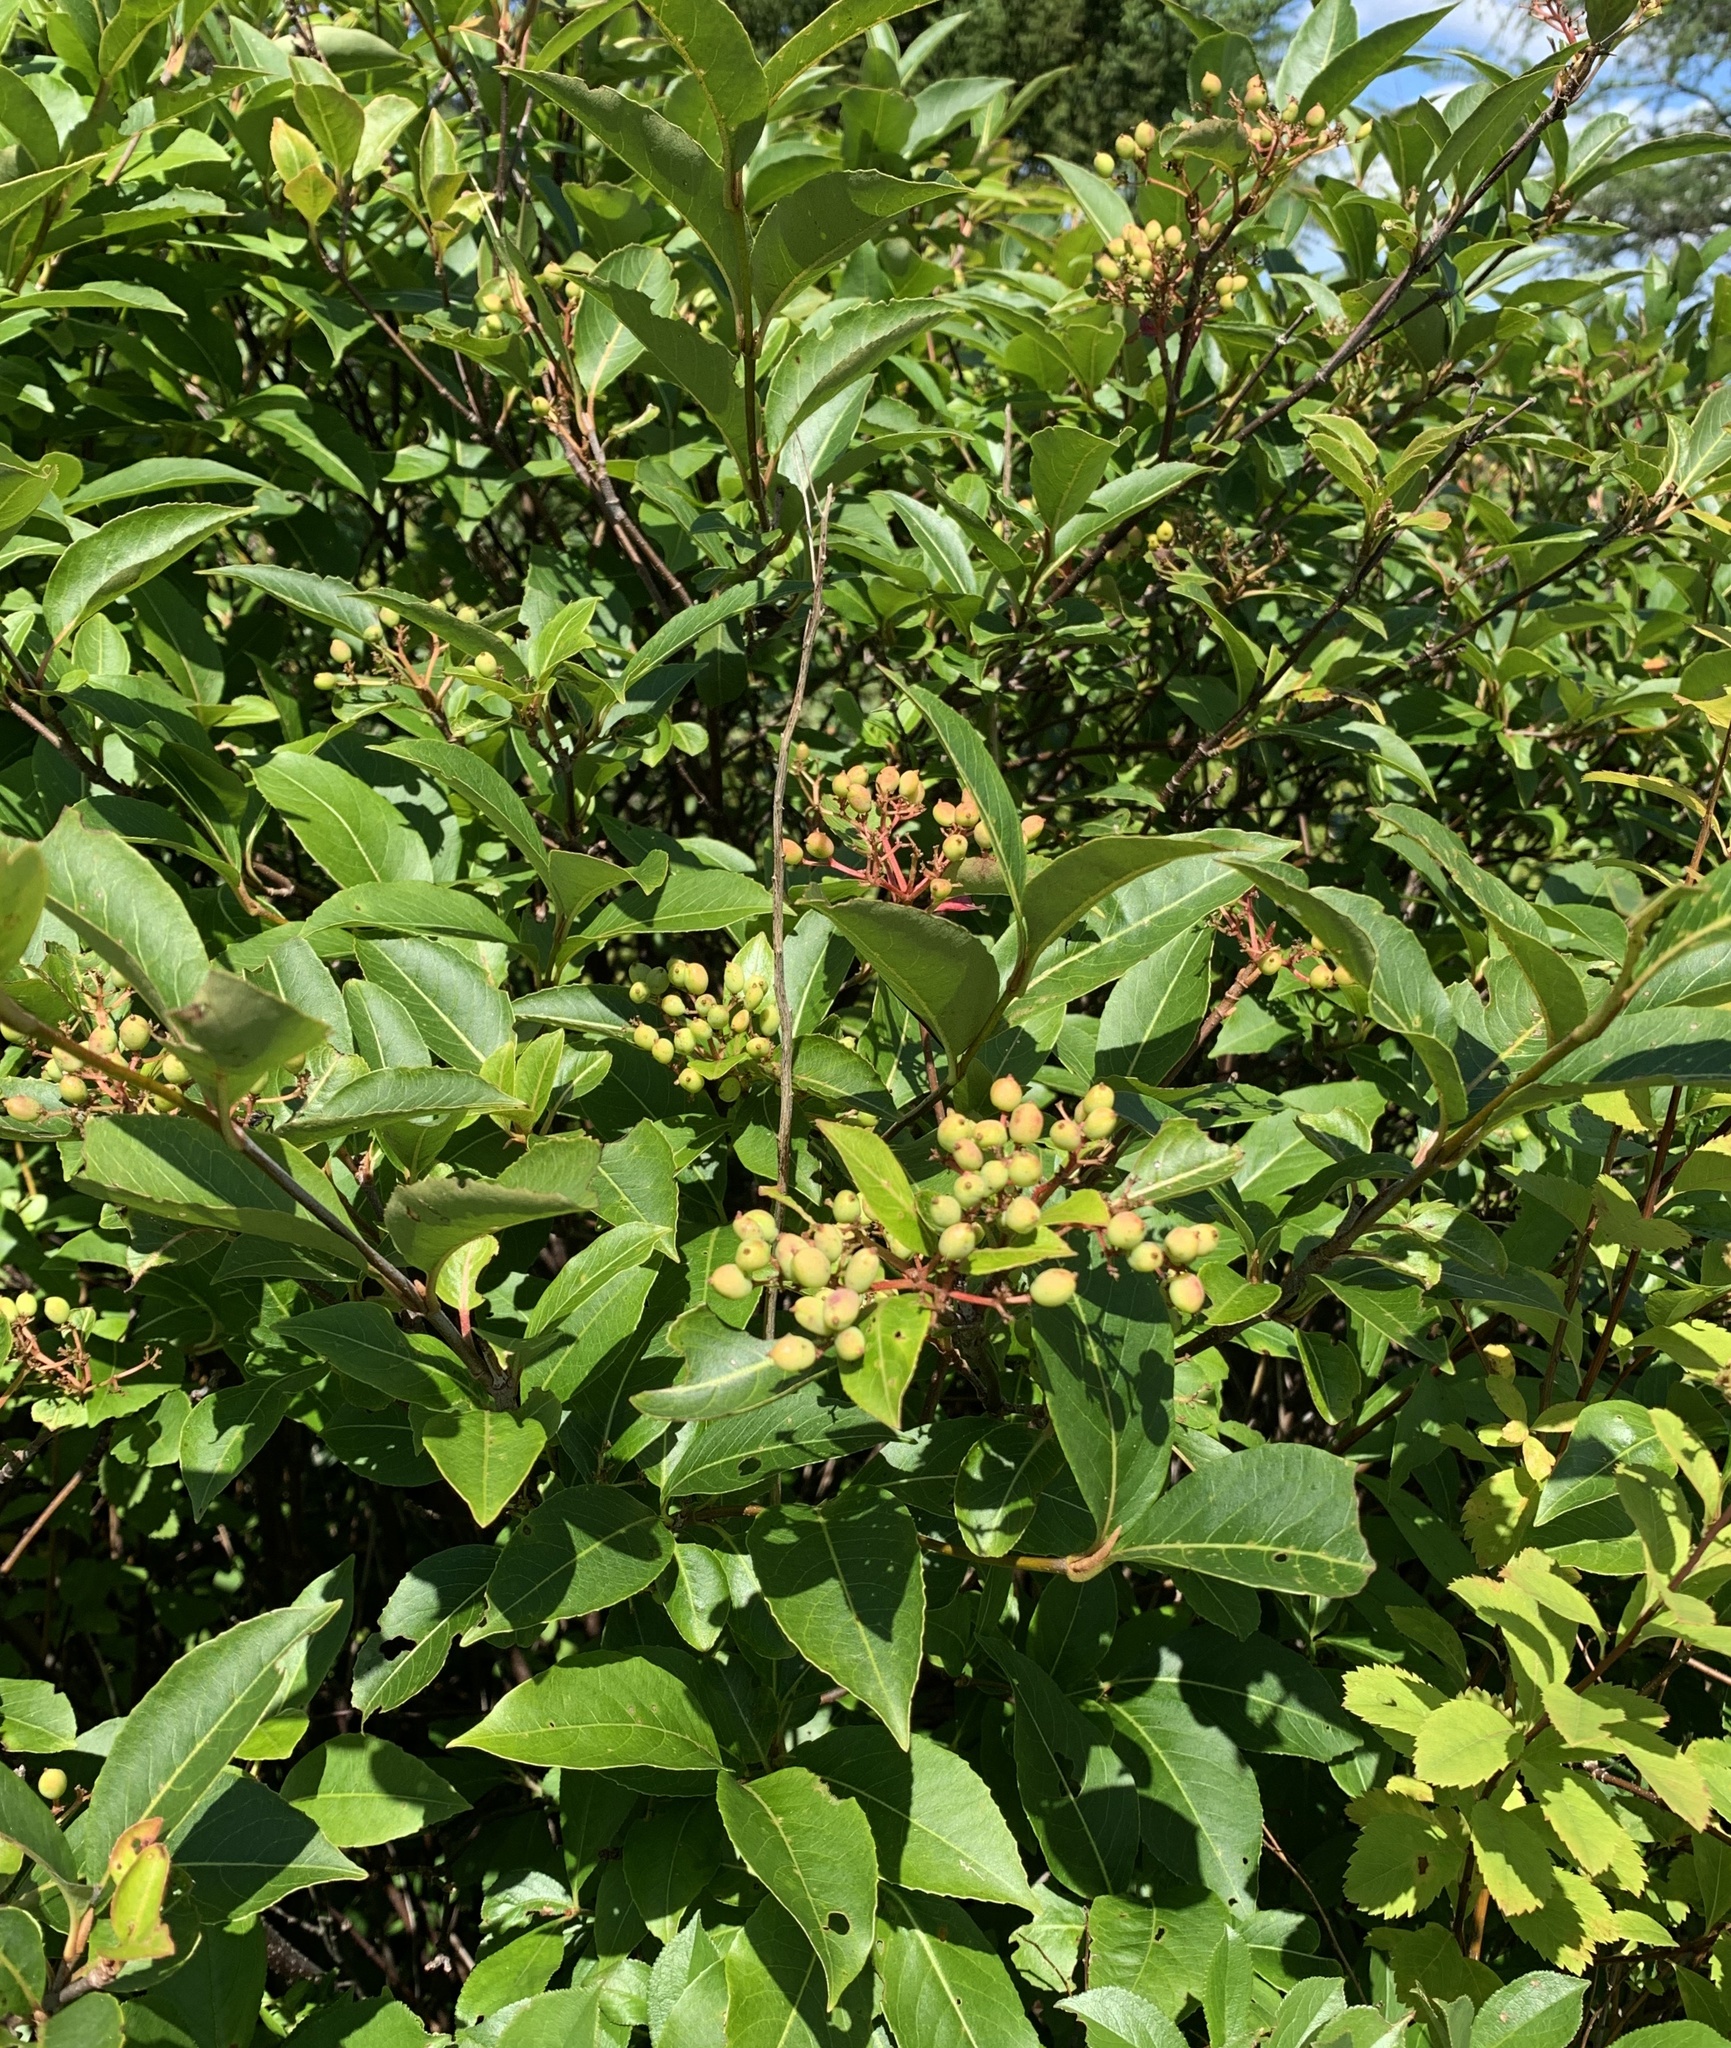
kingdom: Plantae
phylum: Tracheophyta
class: Magnoliopsida
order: Dipsacales
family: Viburnaceae
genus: Viburnum
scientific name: Viburnum cassinoides
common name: Swamp haw
